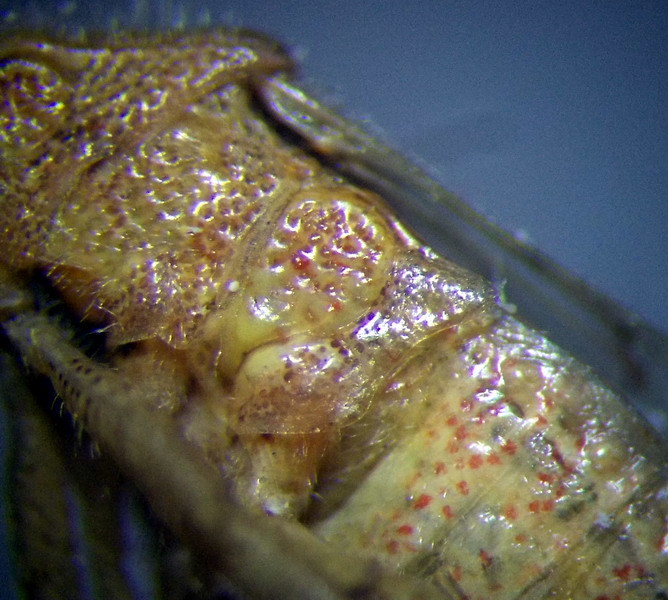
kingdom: Animalia
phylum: Arthropoda
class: Insecta
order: Hemiptera
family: Rhopalidae
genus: Rhopalus
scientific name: Rhopalus parumpunctatus
